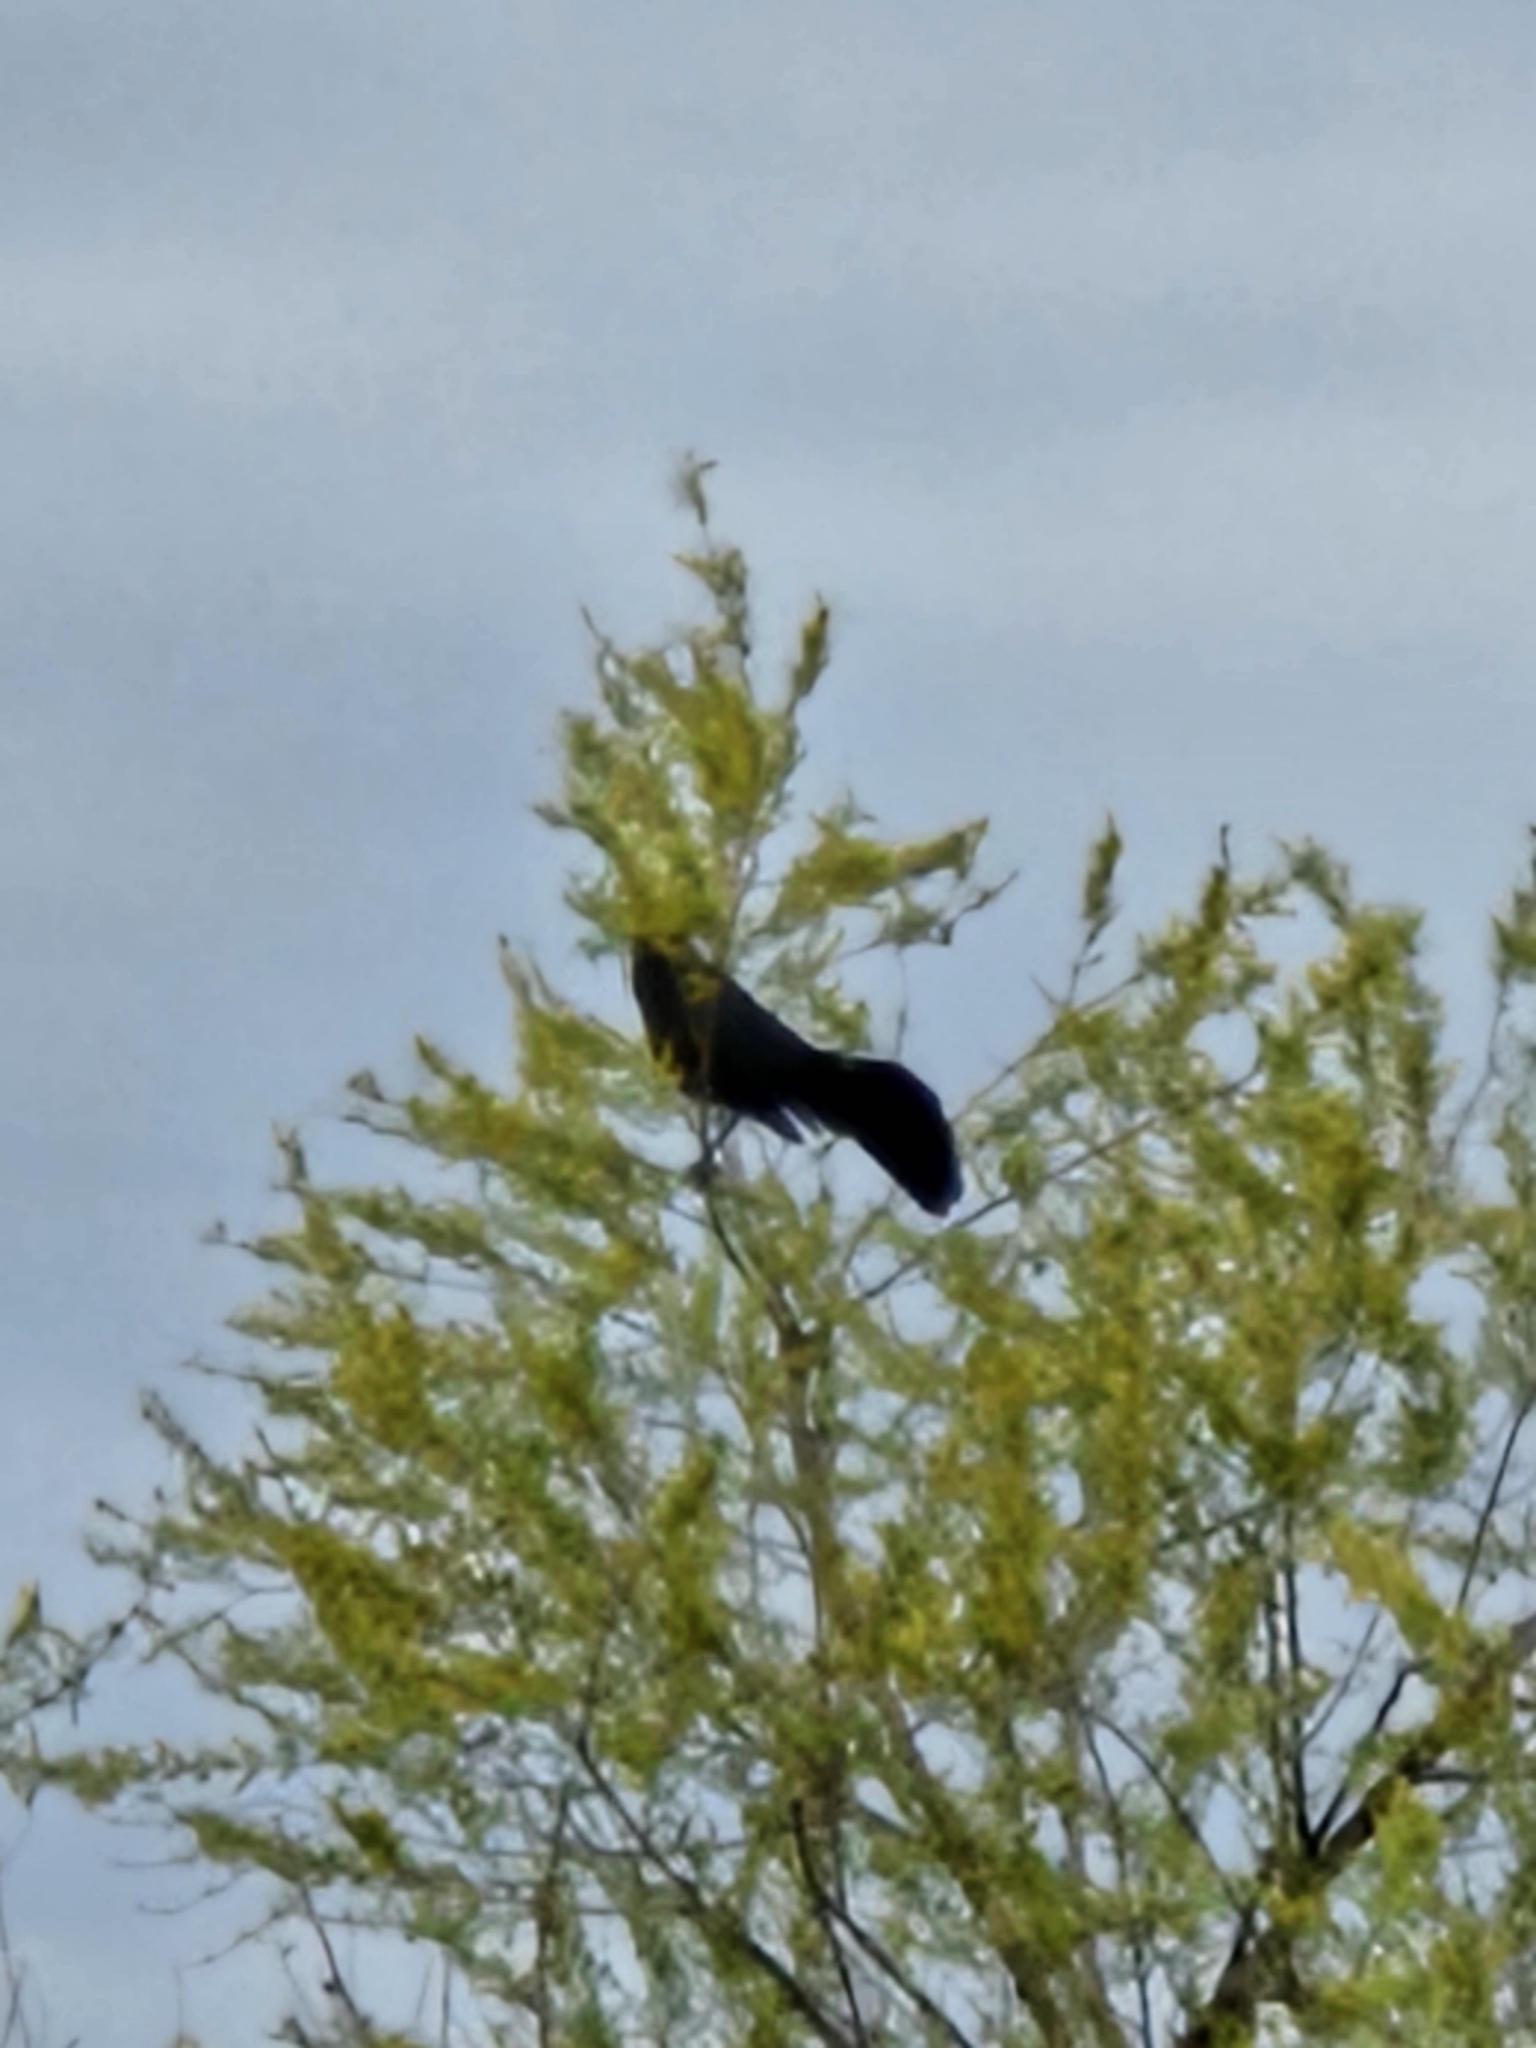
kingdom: Animalia
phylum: Chordata
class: Aves
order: Passeriformes
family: Icteridae
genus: Quiscalus
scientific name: Quiscalus mexicanus
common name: Great-tailed grackle
